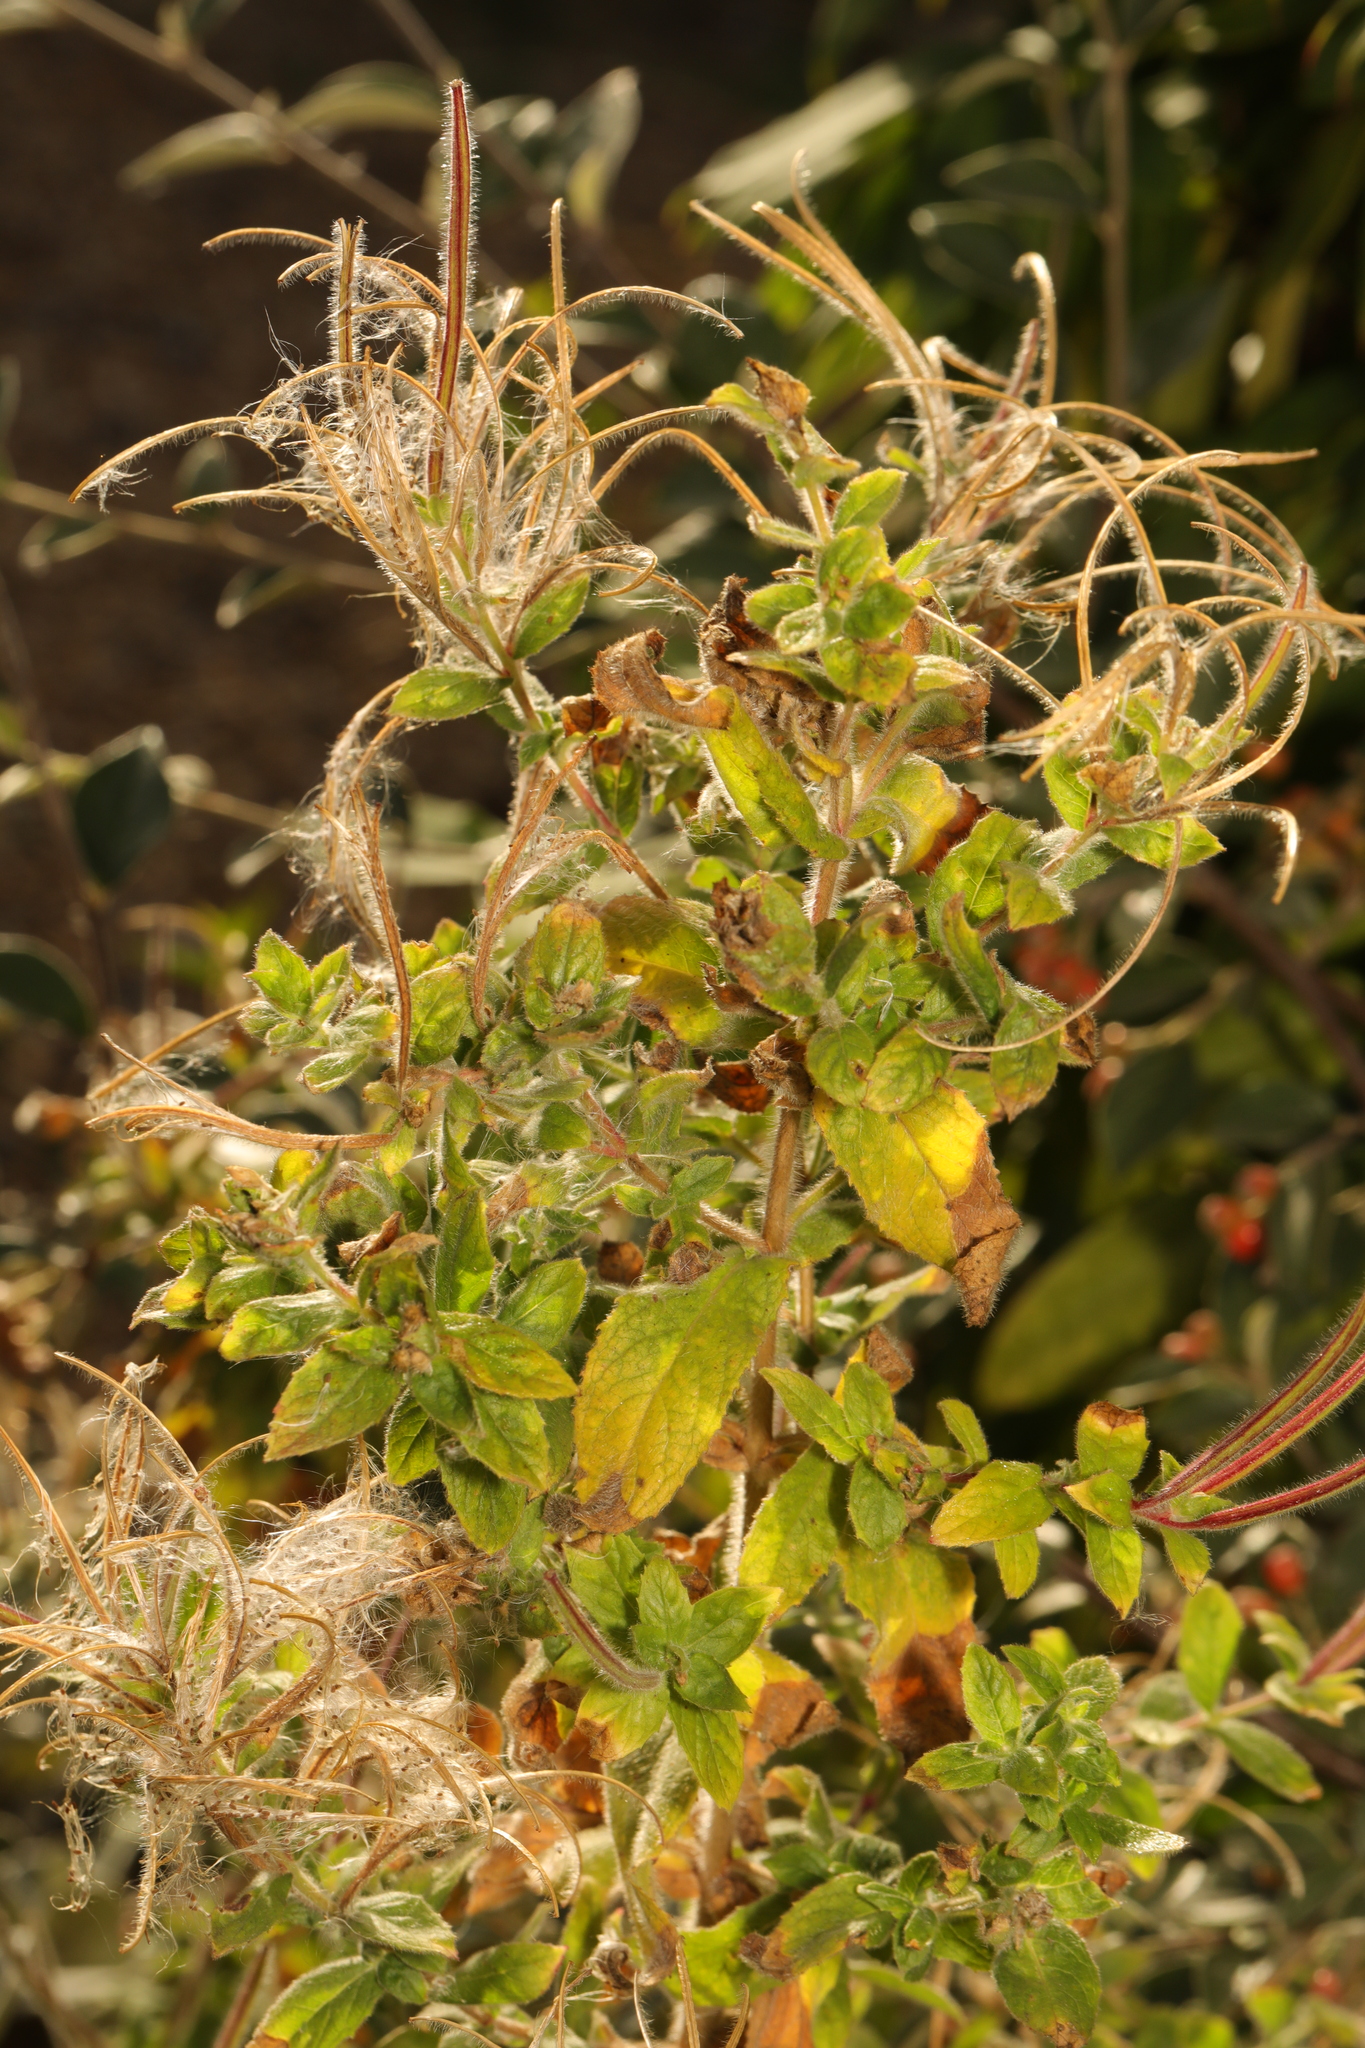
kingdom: Plantae
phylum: Tracheophyta
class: Magnoliopsida
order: Myrtales
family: Onagraceae
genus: Epilobium
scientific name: Epilobium hirsutum
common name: Great willowherb
